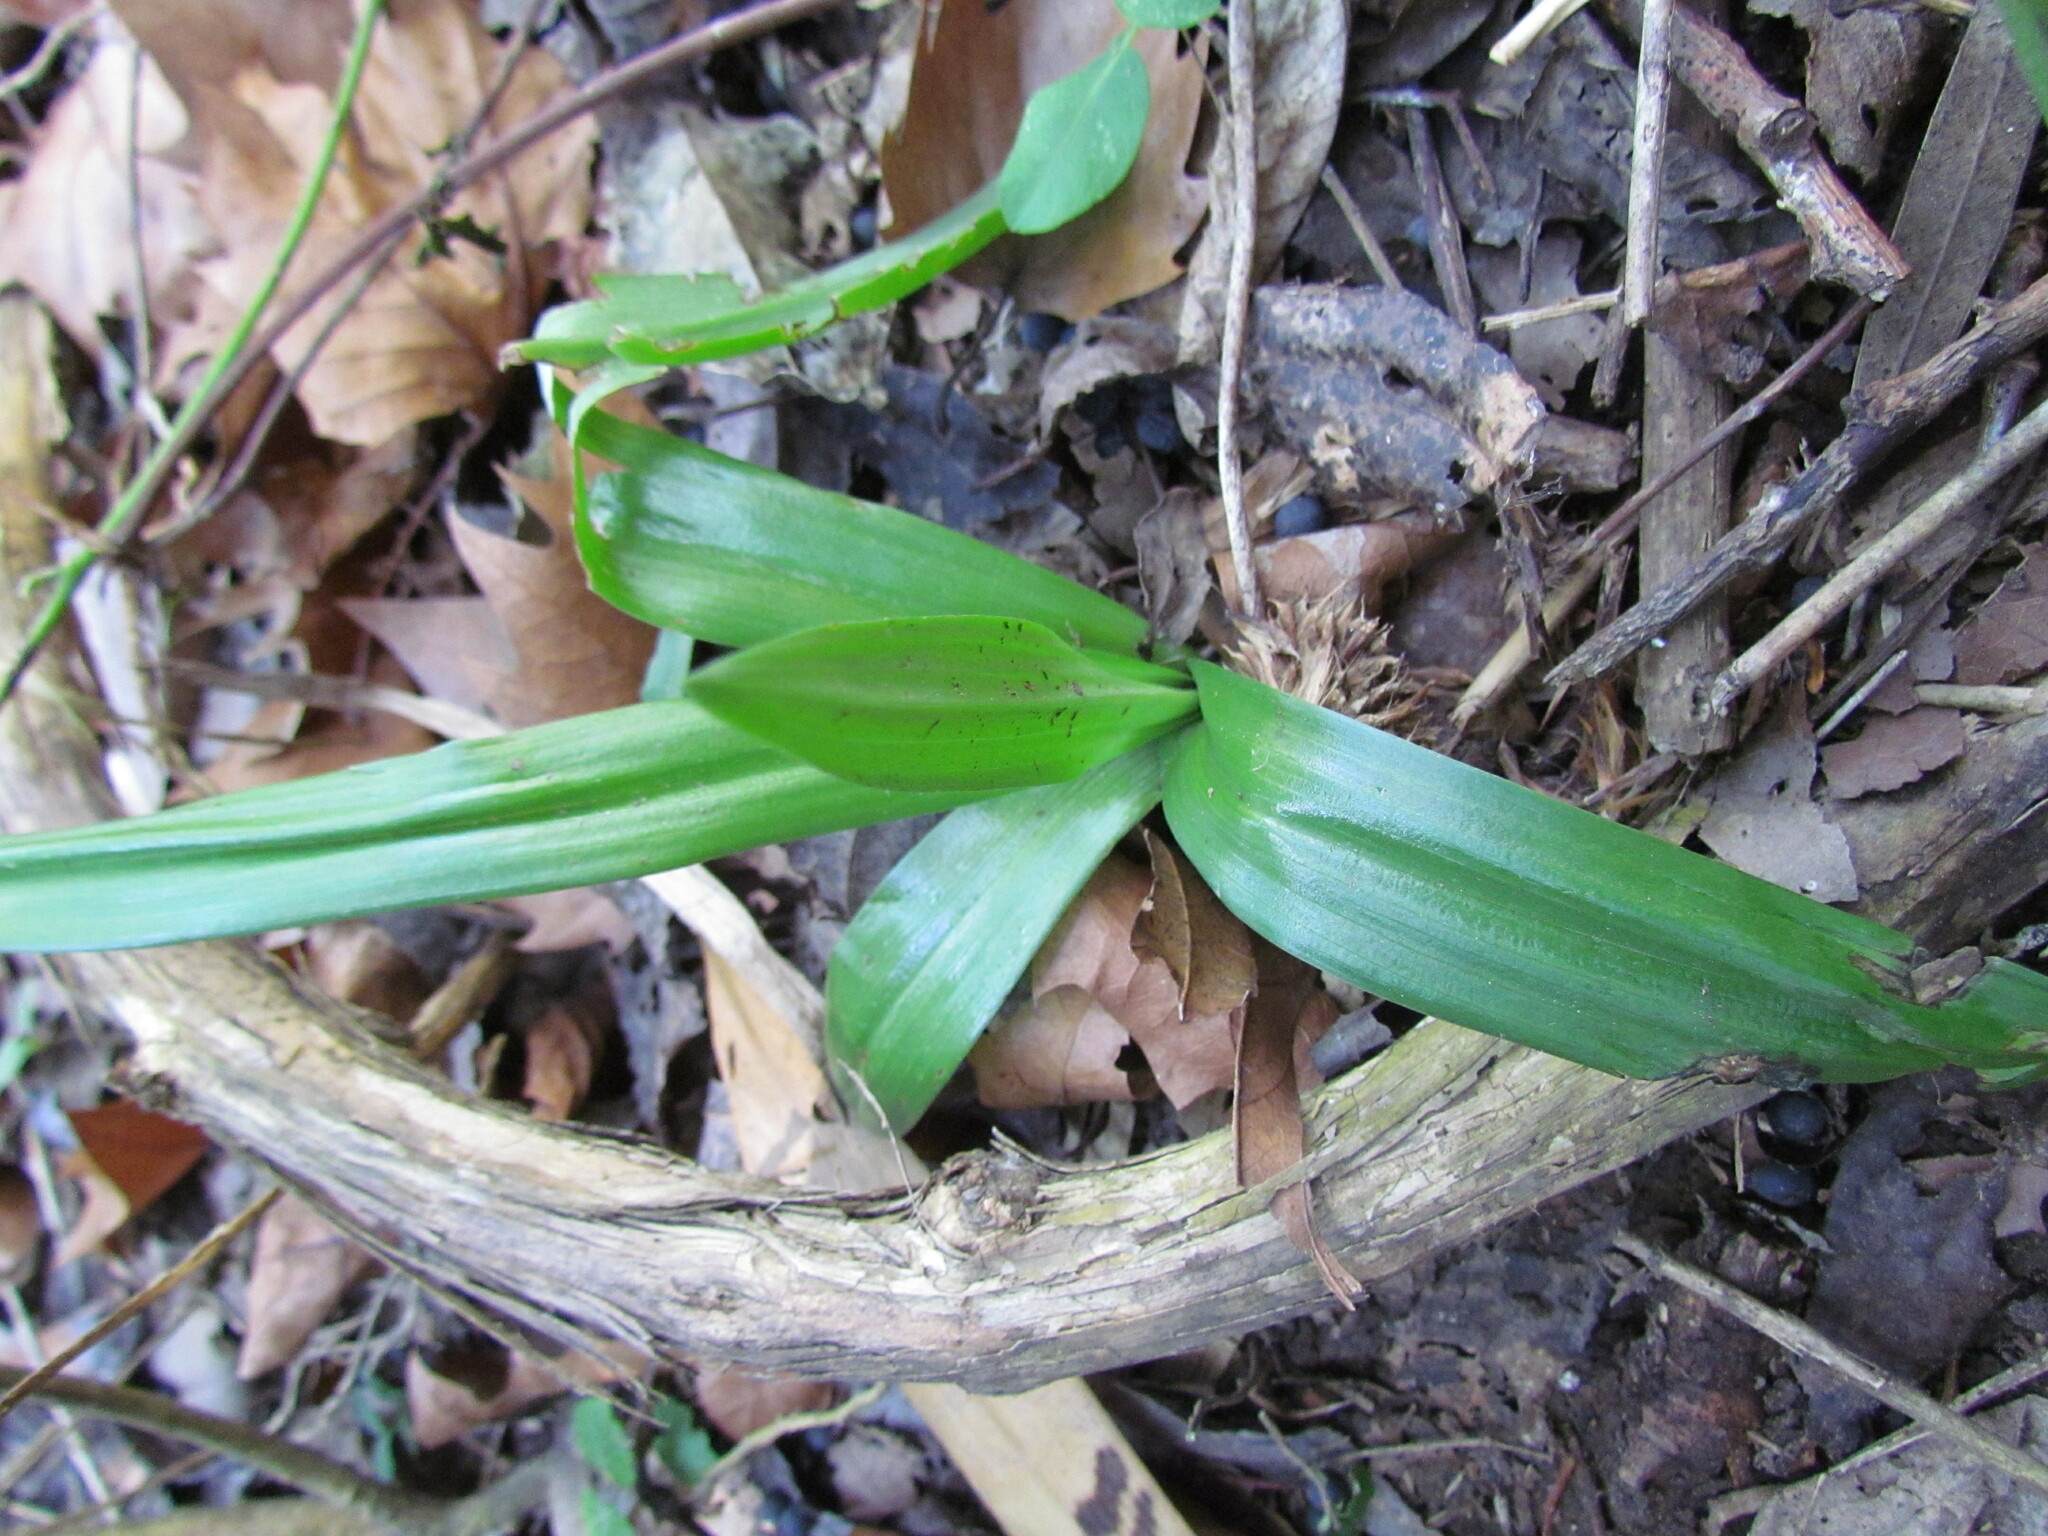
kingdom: Plantae
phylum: Tracheophyta
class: Liliopsida
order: Asparagales
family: Orchidaceae
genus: Chloraea
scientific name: Chloraea membranacea
